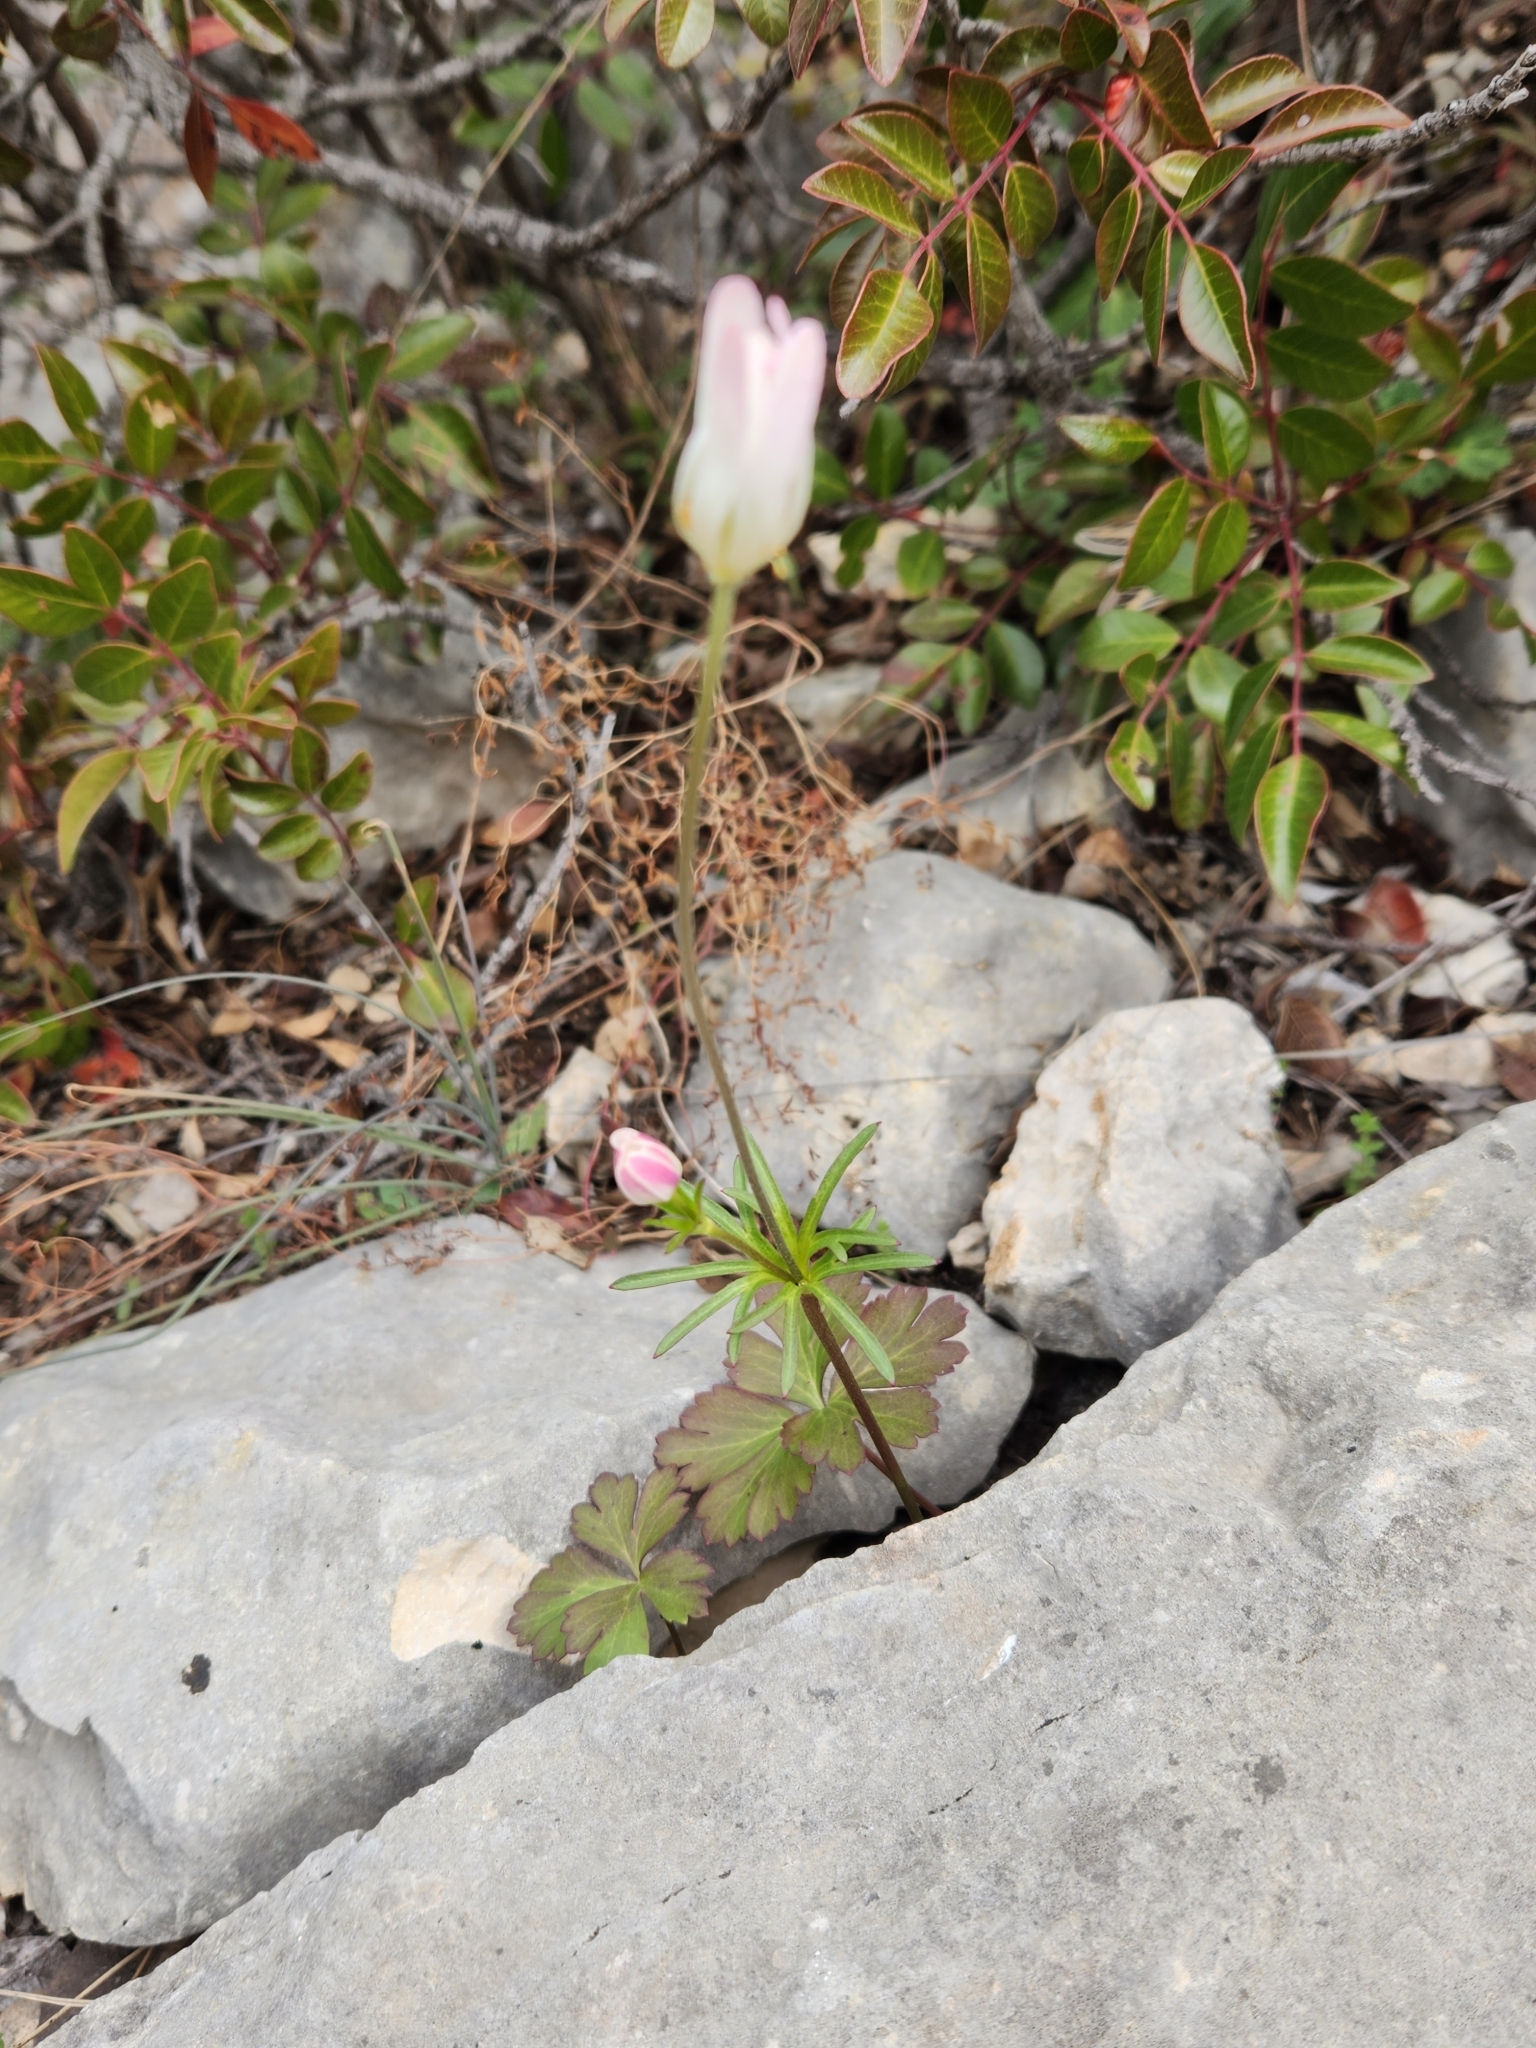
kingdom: Plantae
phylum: Tracheophyta
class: Magnoliopsida
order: Ranunculales
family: Ranunculaceae
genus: Anemone
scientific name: Anemone edwardsiana
